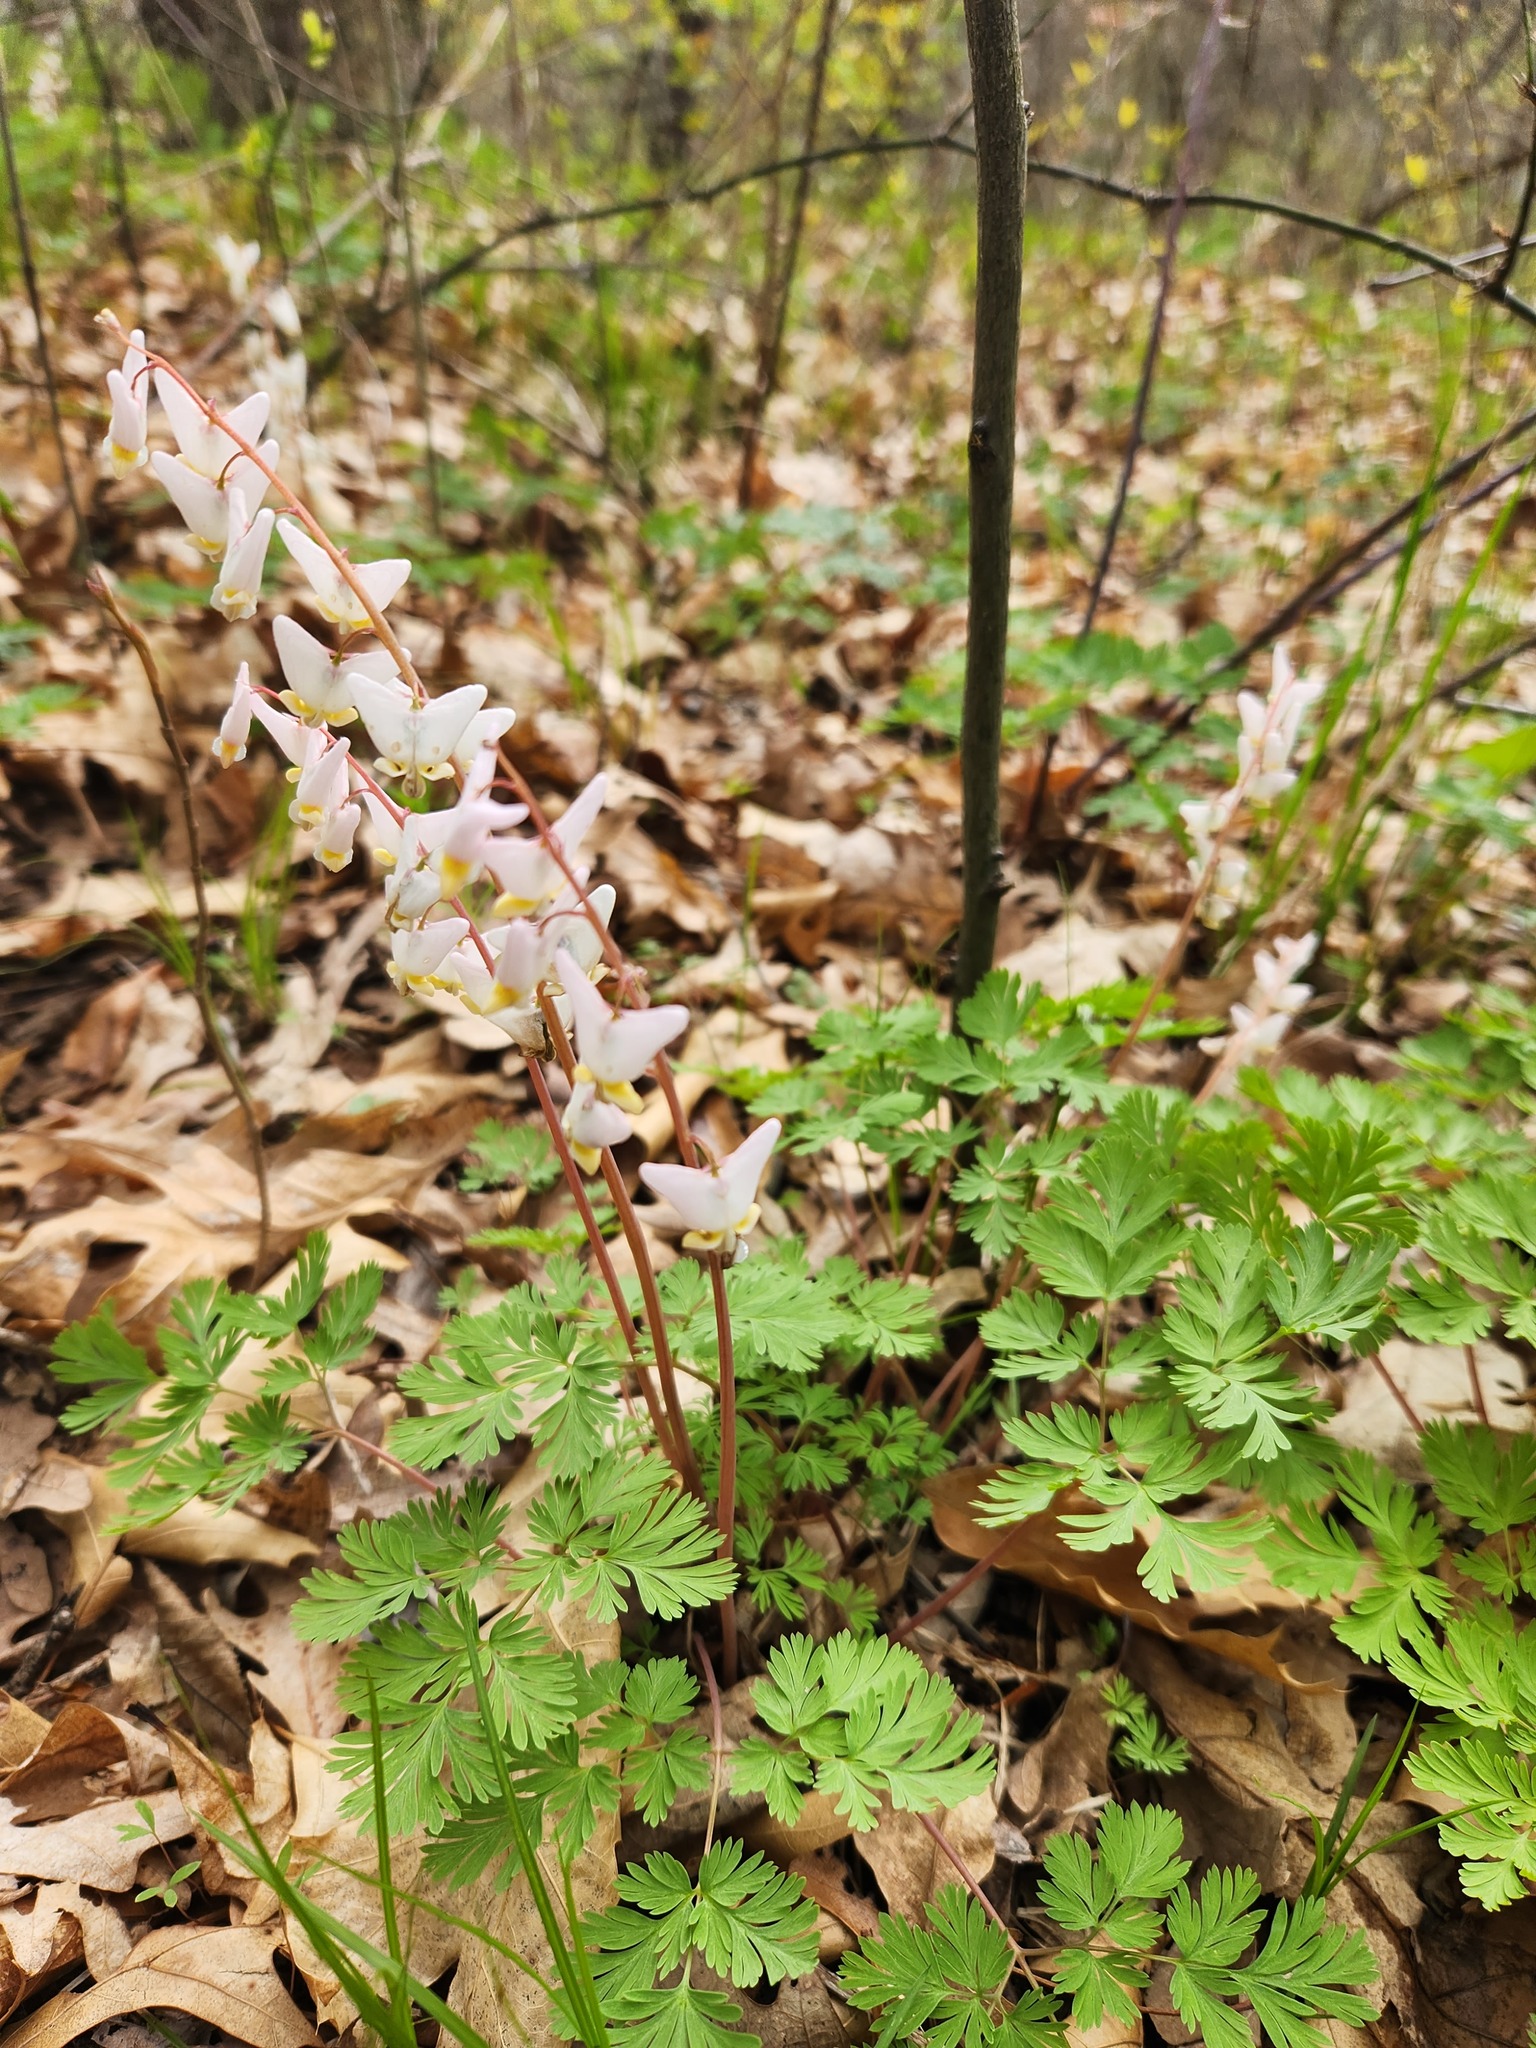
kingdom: Plantae
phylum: Tracheophyta
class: Magnoliopsida
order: Ranunculales
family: Papaveraceae
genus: Dicentra
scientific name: Dicentra cucullaria
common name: Dutchman's breeches
